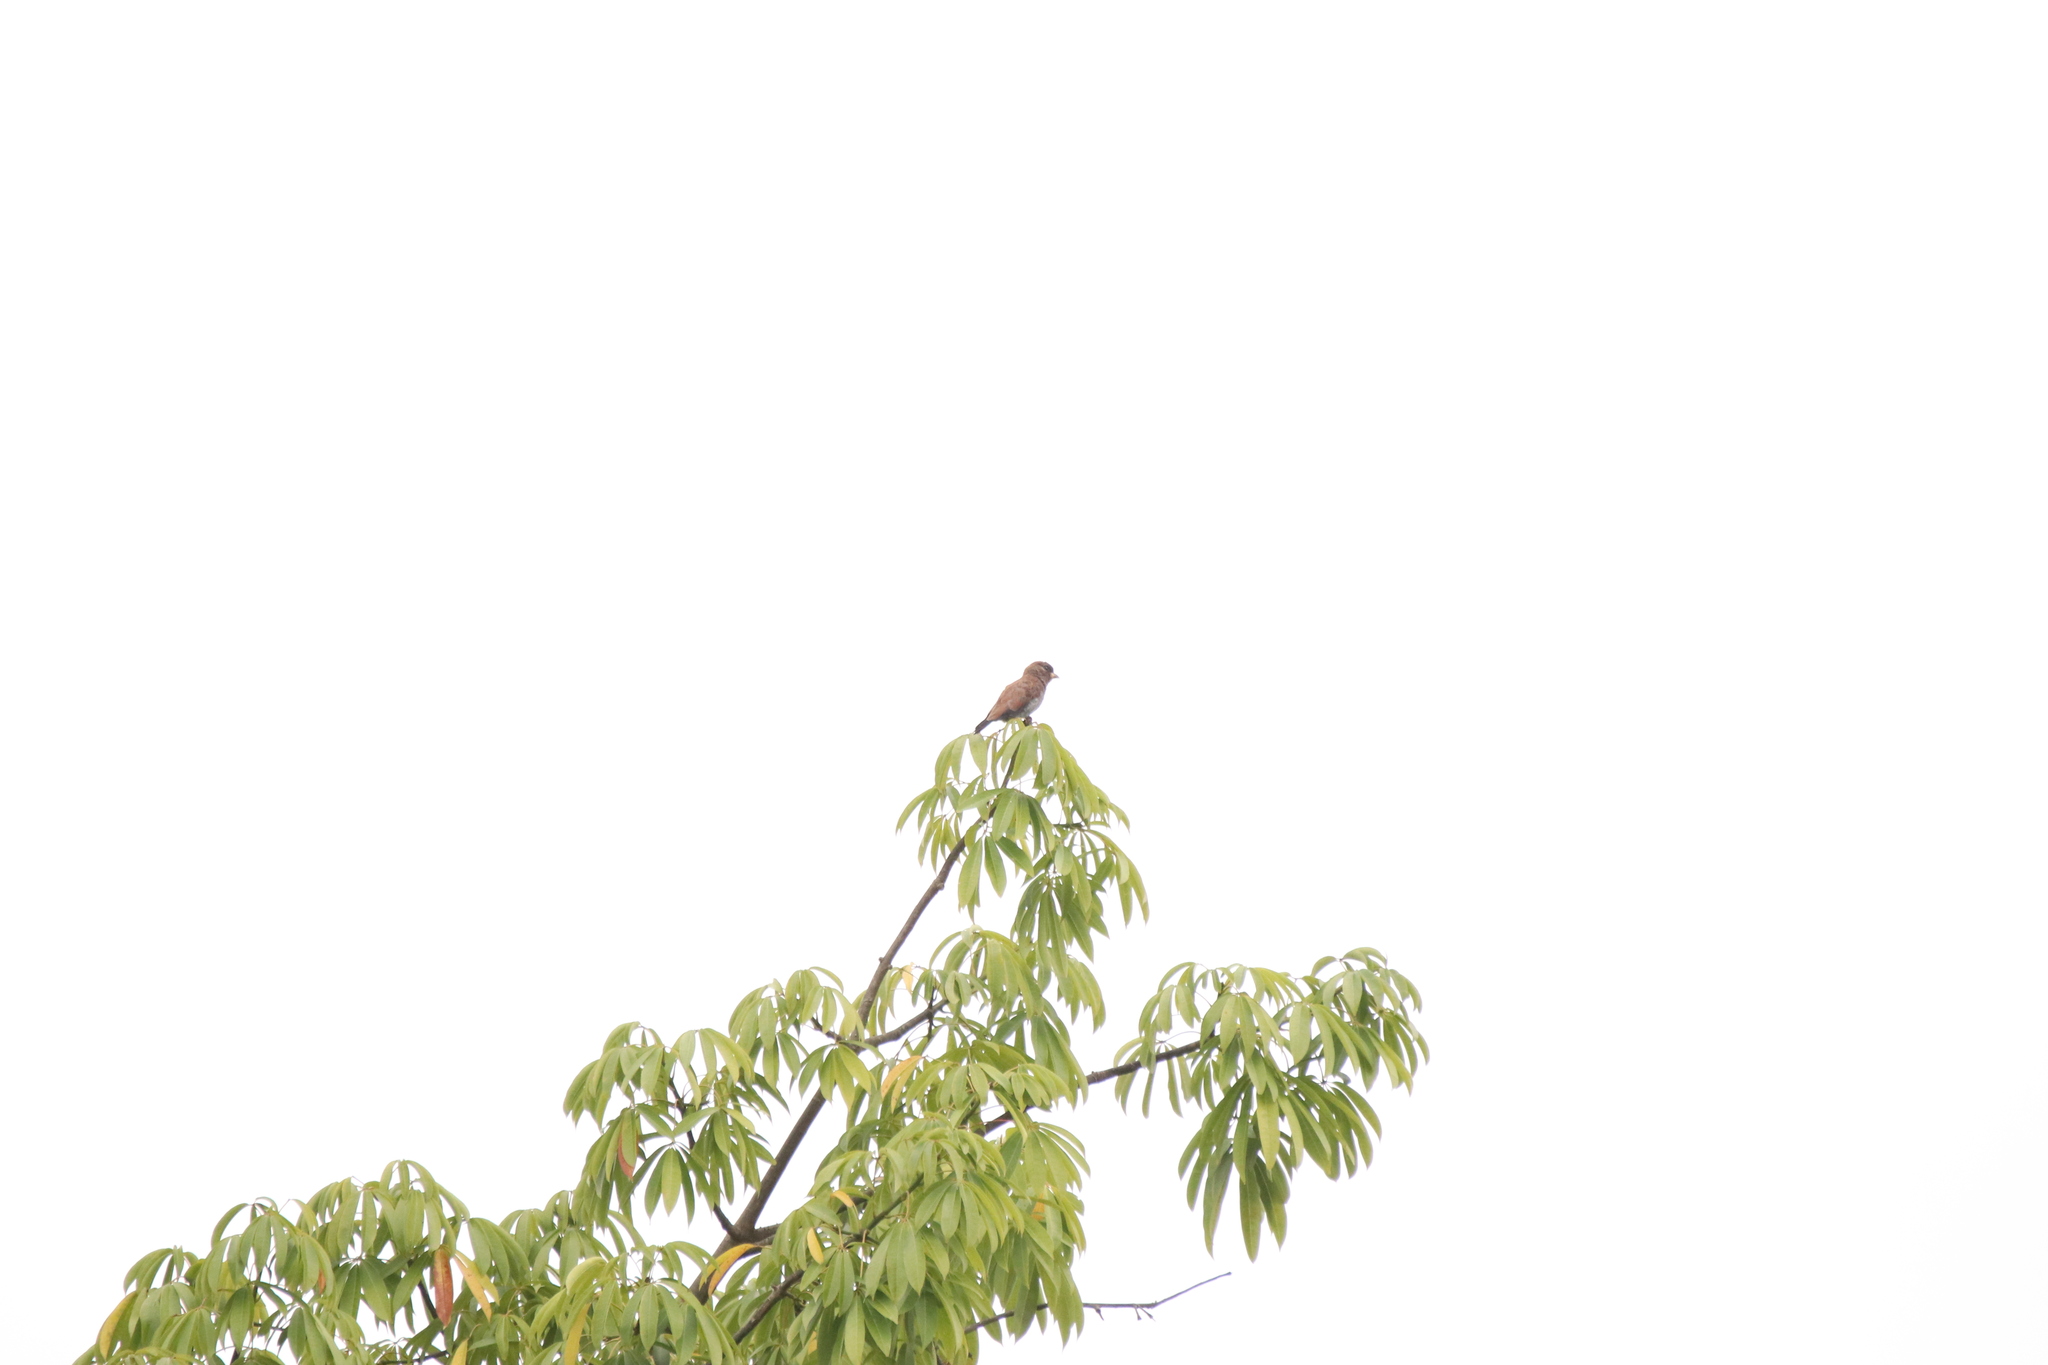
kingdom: Animalia
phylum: Chordata
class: Aves
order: Coraciiformes
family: Coraciidae
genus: Eurystomus
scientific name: Eurystomus glaucurus
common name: Broad-billed roller
